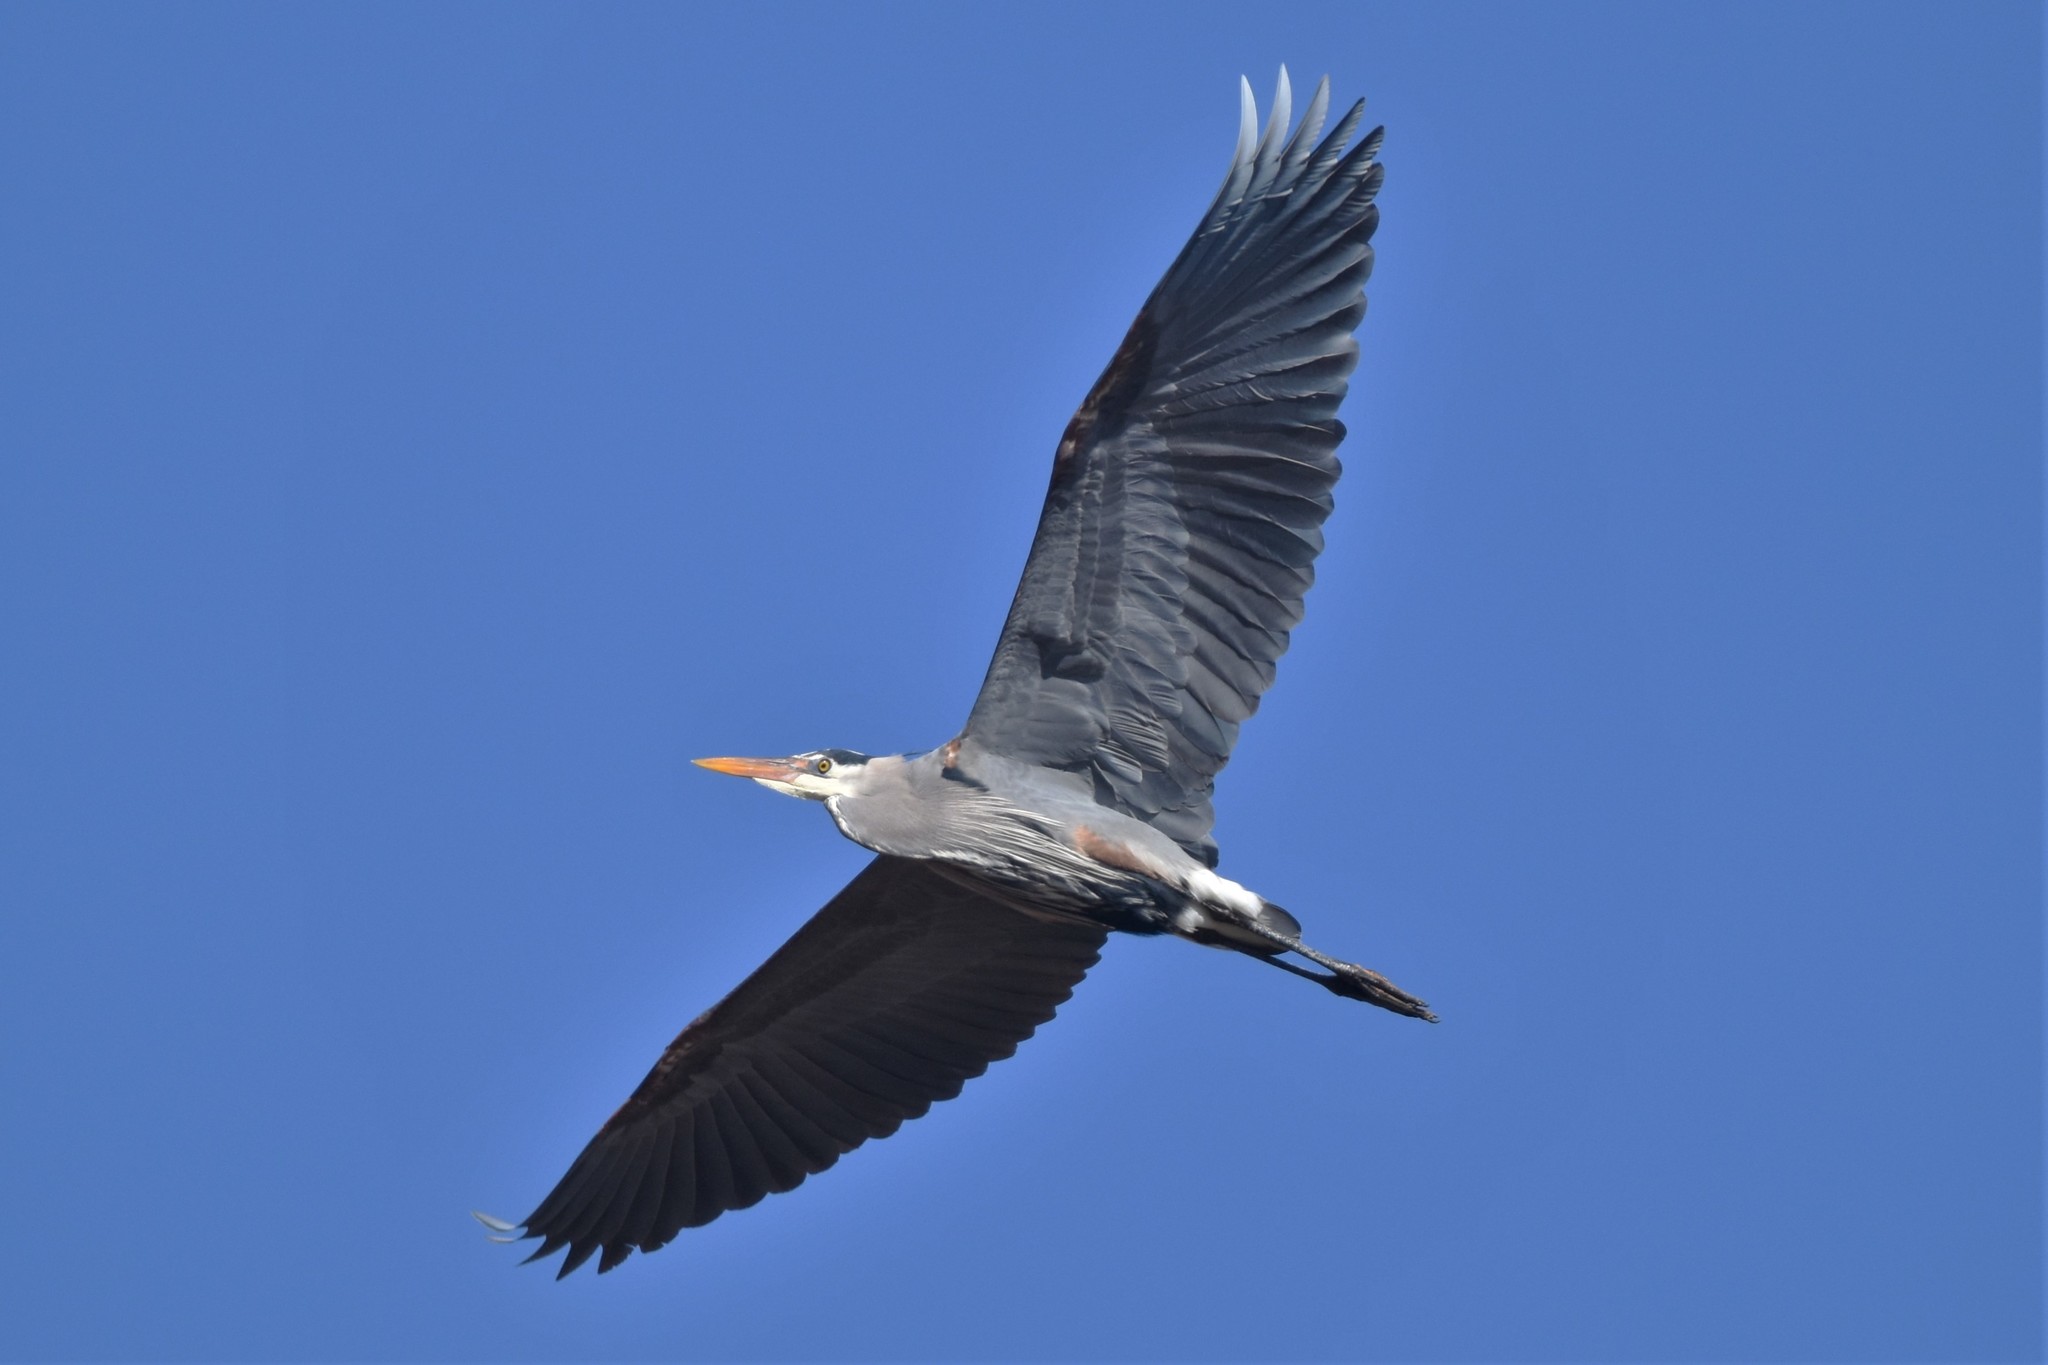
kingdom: Animalia
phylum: Chordata
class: Aves
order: Pelecaniformes
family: Ardeidae
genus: Ardea
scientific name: Ardea herodias
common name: Great blue heron
